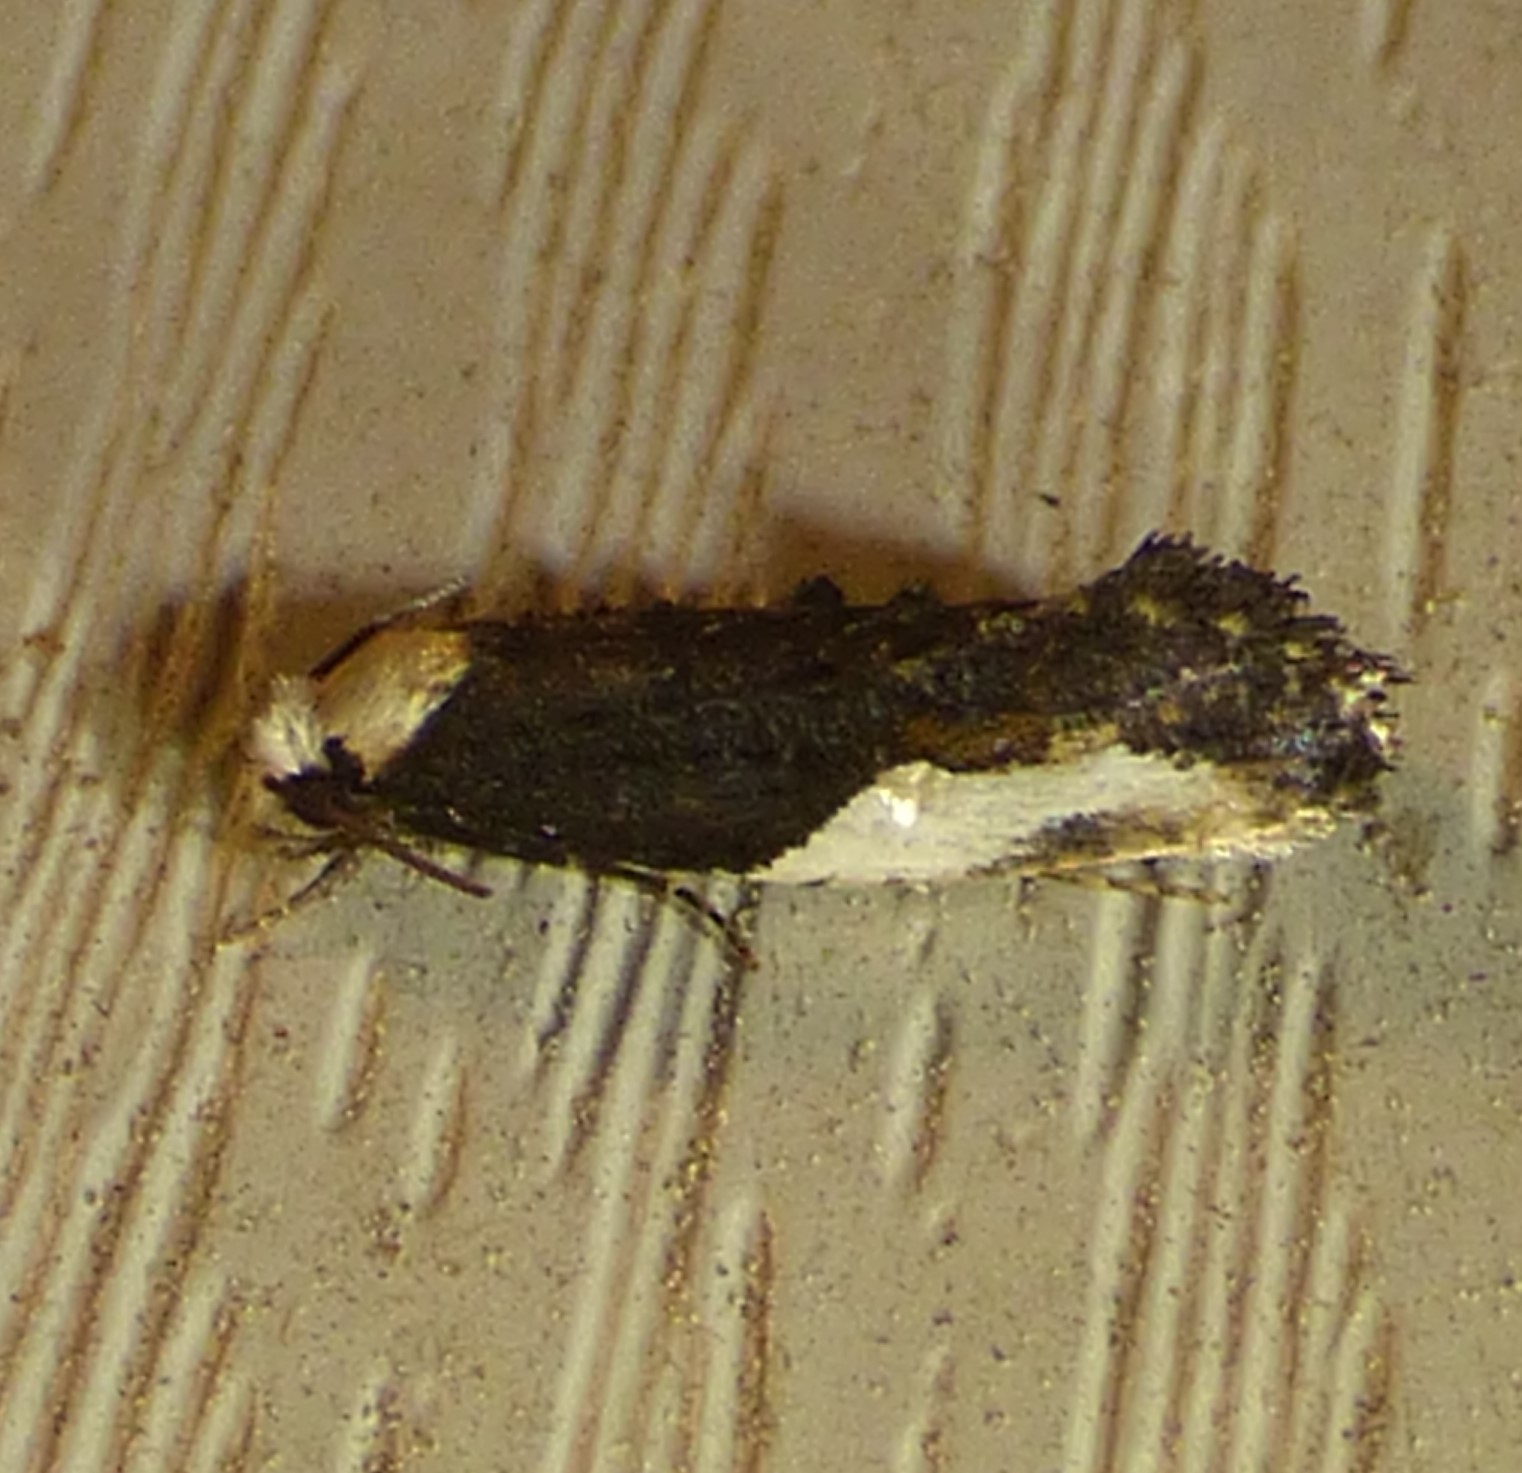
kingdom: Animalia
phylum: Arthropoda
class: Insecta
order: Lepidoptera
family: Tineidae
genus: Monopis
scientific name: Monopis longella
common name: Pavlovski's monopis moth
